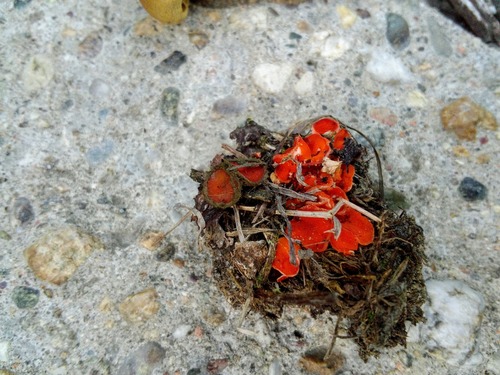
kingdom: Fungi
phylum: Ascomycota
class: Pezizomycetes
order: Pezizales
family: Pyronemataceae
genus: Scutellinia
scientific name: Scutellinia
